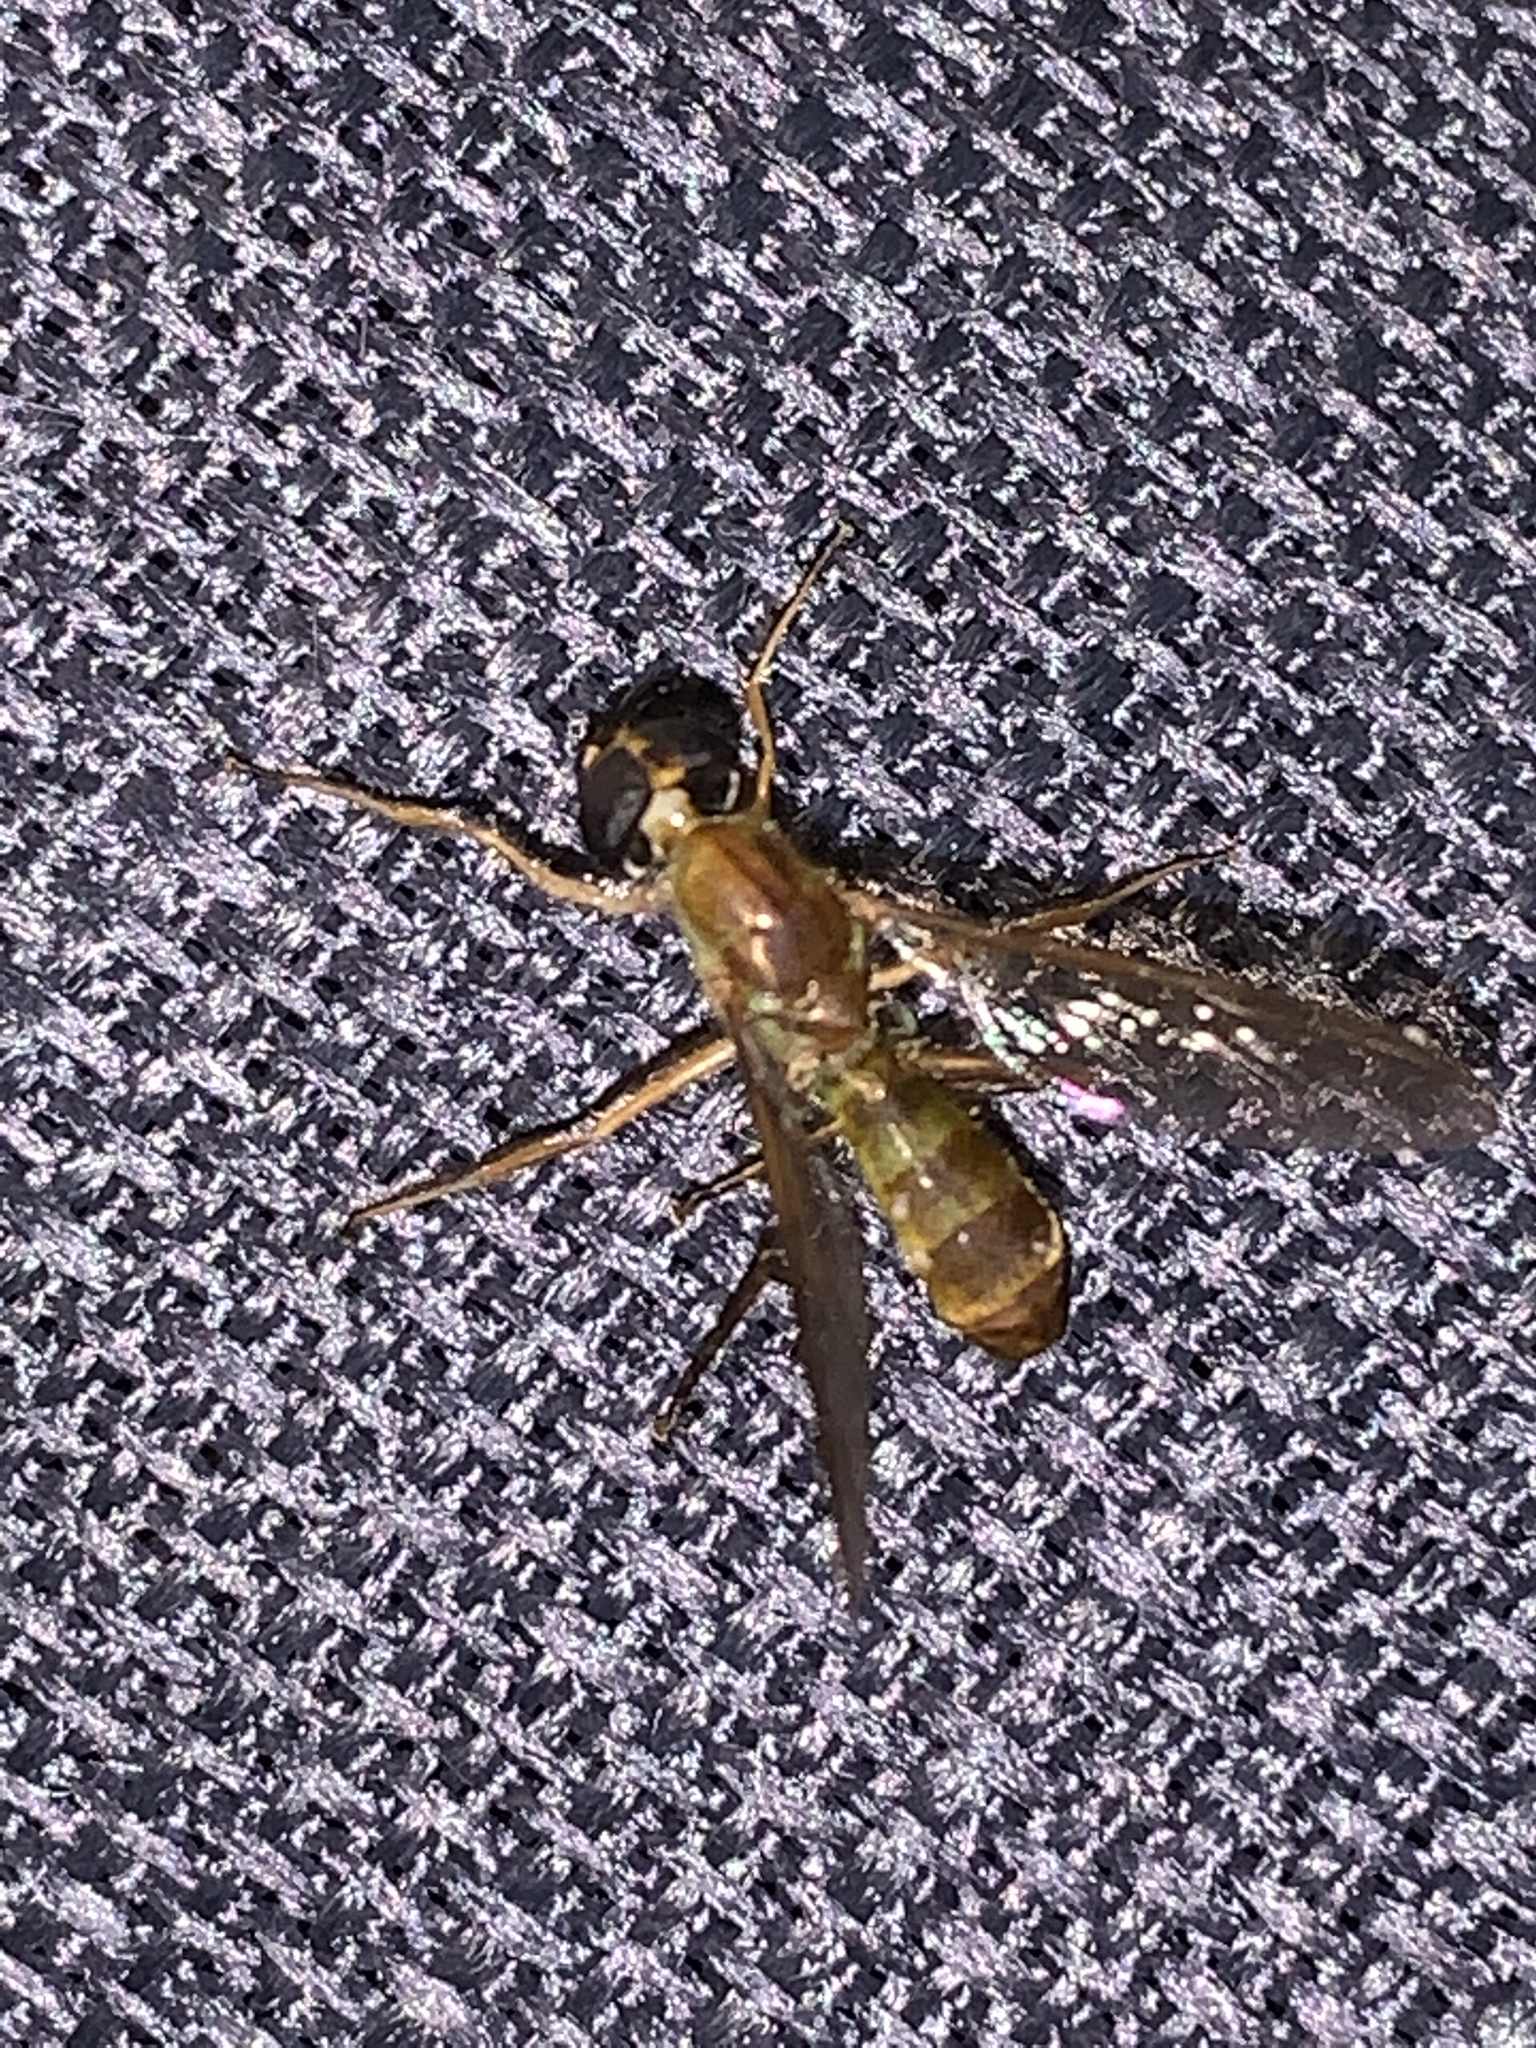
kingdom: Animalia
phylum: Arthropoda
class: Insecta
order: Diptera
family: Stratiomyidae
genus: Ptecticus
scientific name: Ptecticus trivittatus
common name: Compost fly
